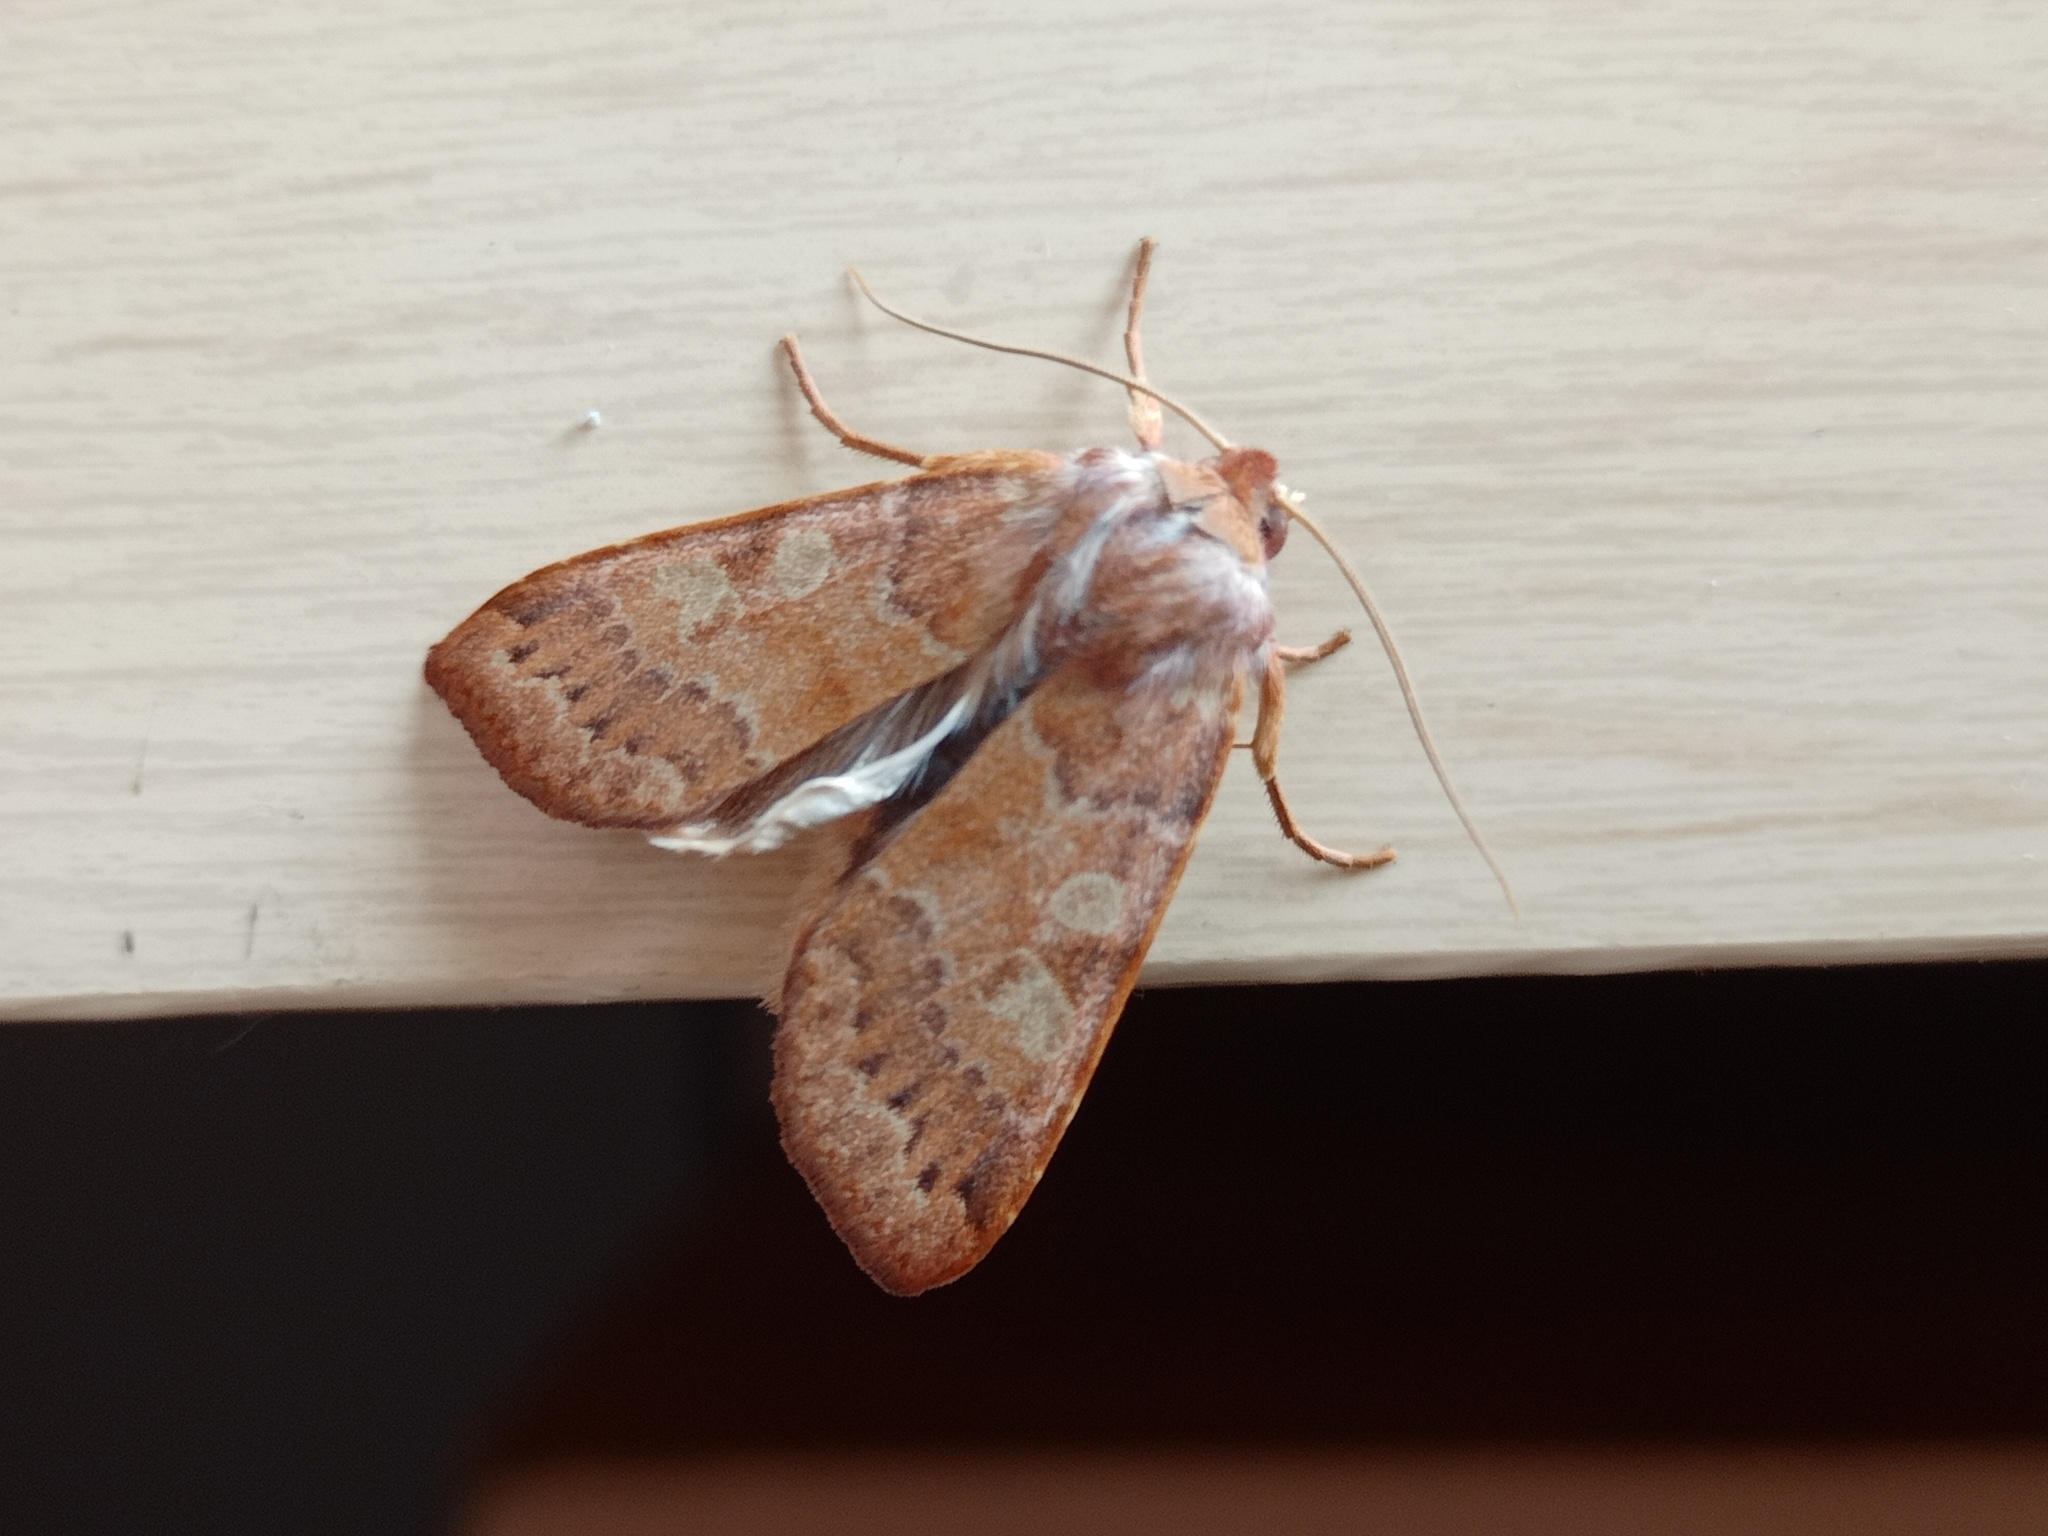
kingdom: Animalia
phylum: Arthropoda
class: Insecta
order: Lepidoptera
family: Noctuidae
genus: Agrochola
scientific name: Agrochola helvola
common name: Flounced chestnut
